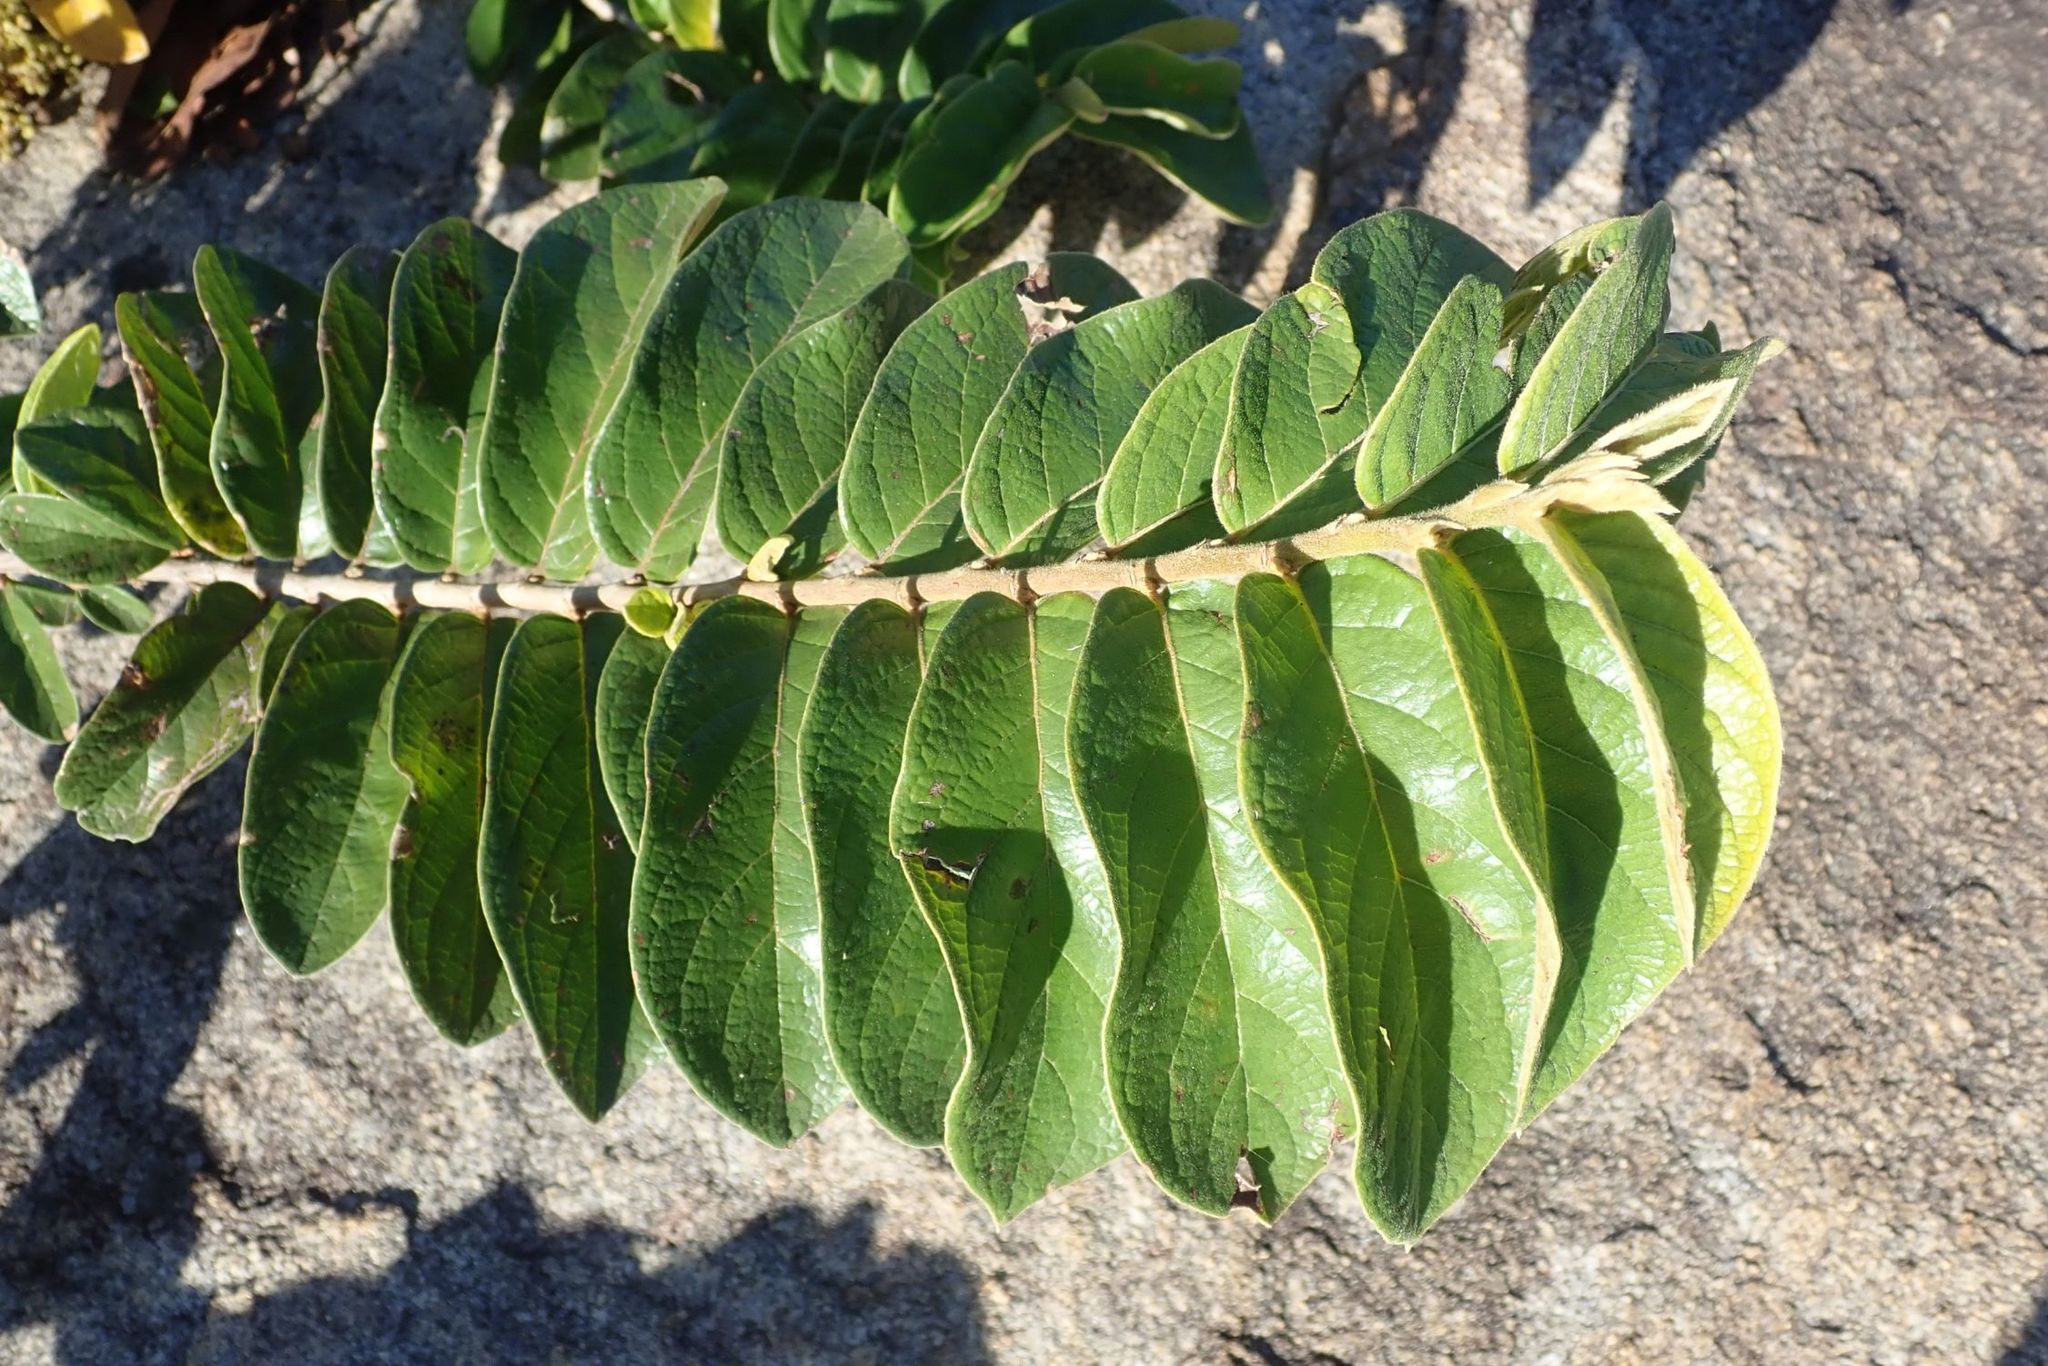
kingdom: Plantae
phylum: Tracheophyta
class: Magnoliopsida
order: Malpighiales
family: Phyllanthaceae
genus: Antidesma
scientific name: Antidesma venosum
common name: Tassel-berry
